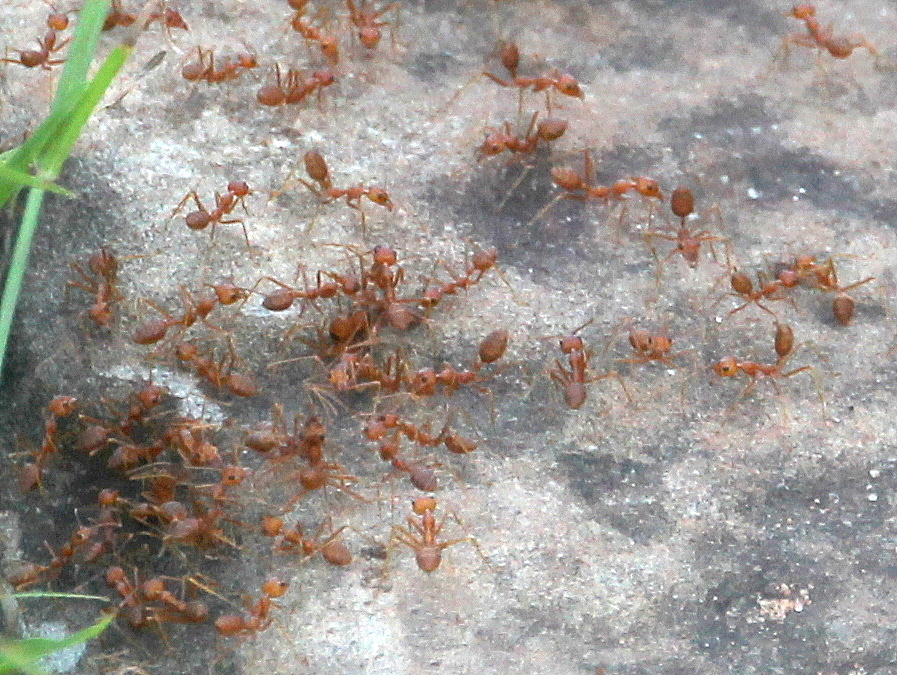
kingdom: Animalia
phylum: Arthropoda
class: Insecta
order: Hymenoptera
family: Formicidae
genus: Oecophylla
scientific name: Oecophylla smaragdina
